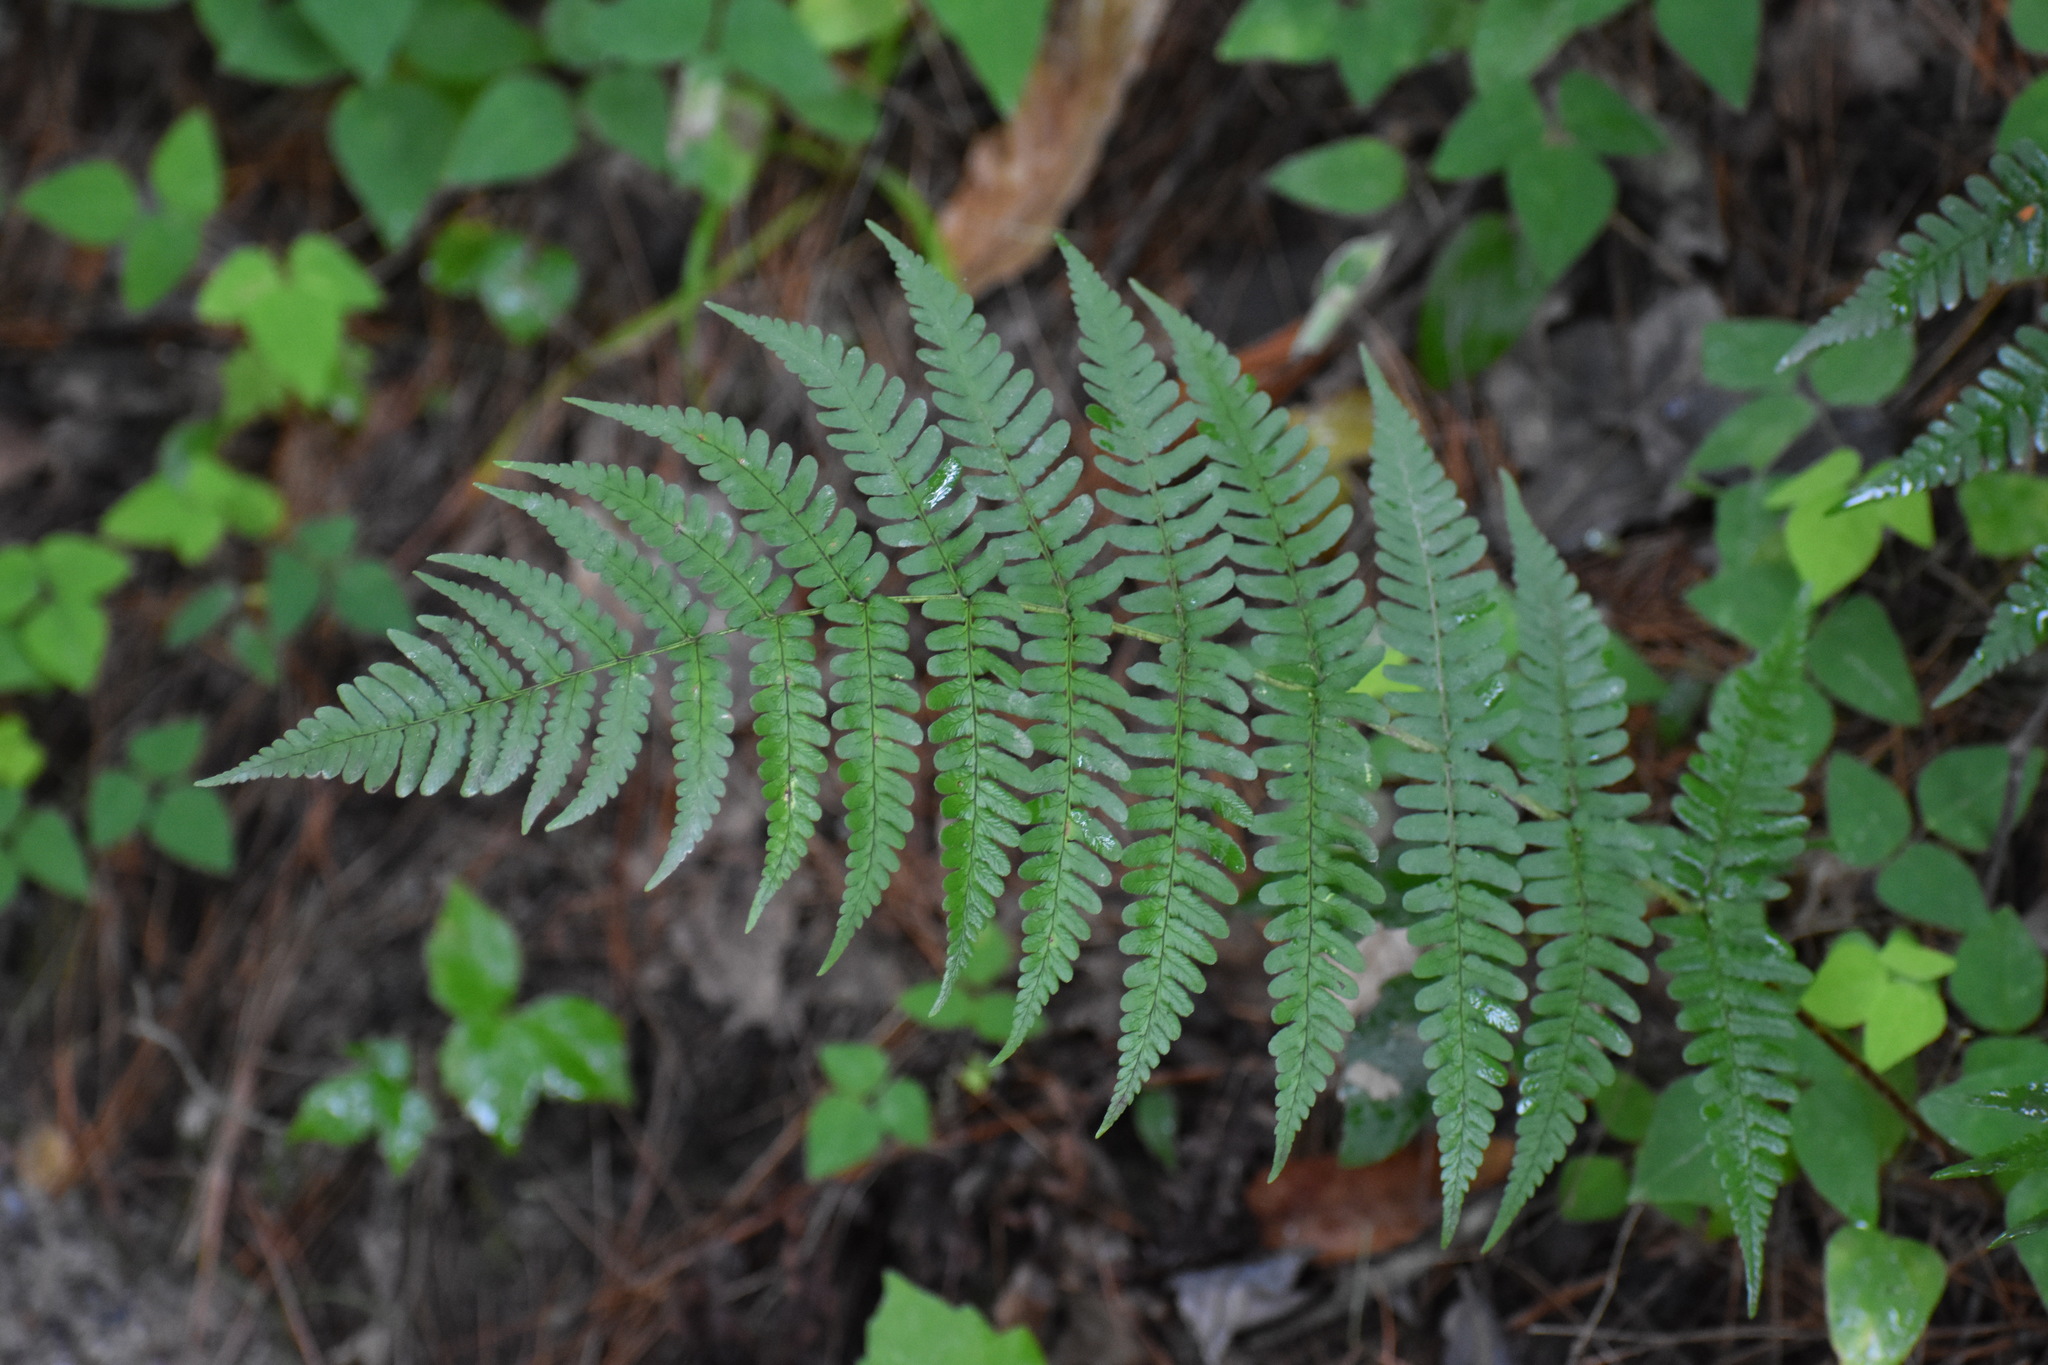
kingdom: Plantae
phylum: Tracheophyta
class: Polypodiopsida
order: Polypodiales
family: Dryopteridaceae
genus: Dryopteris
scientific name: Dryopteris marginalis
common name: Marginal wood fern
